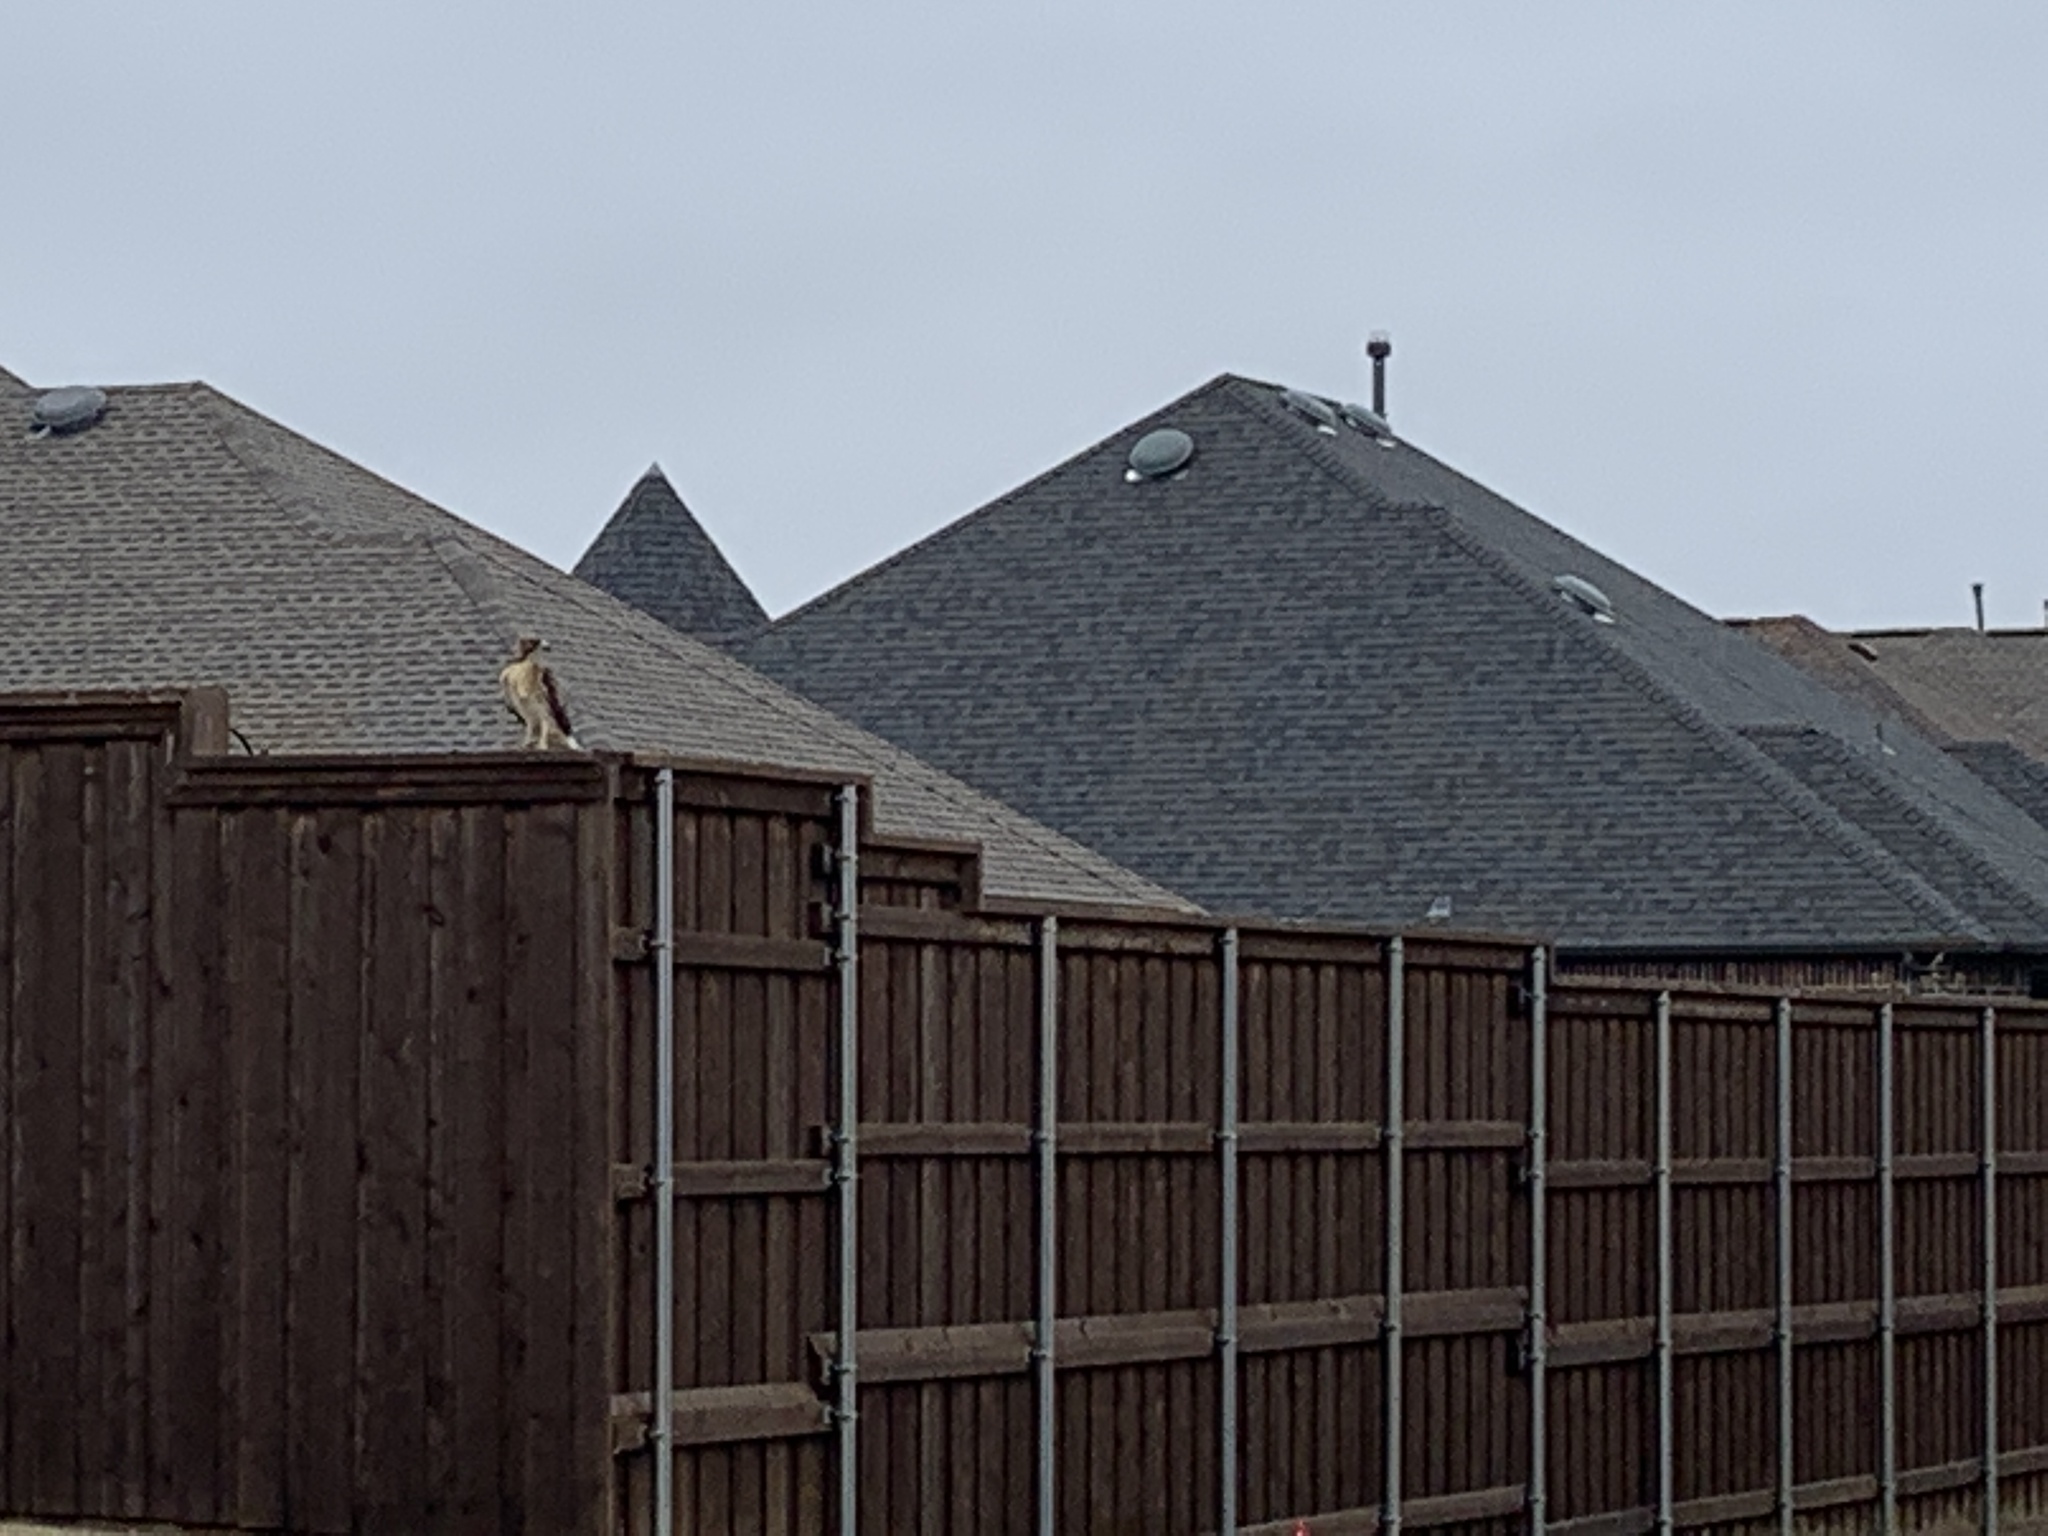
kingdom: Animalia
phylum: Chordata
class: Aves
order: Accipitriformes
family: Accipitridae
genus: Buteo
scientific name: Buteo jamaicensis
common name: Red-tailed hawk
